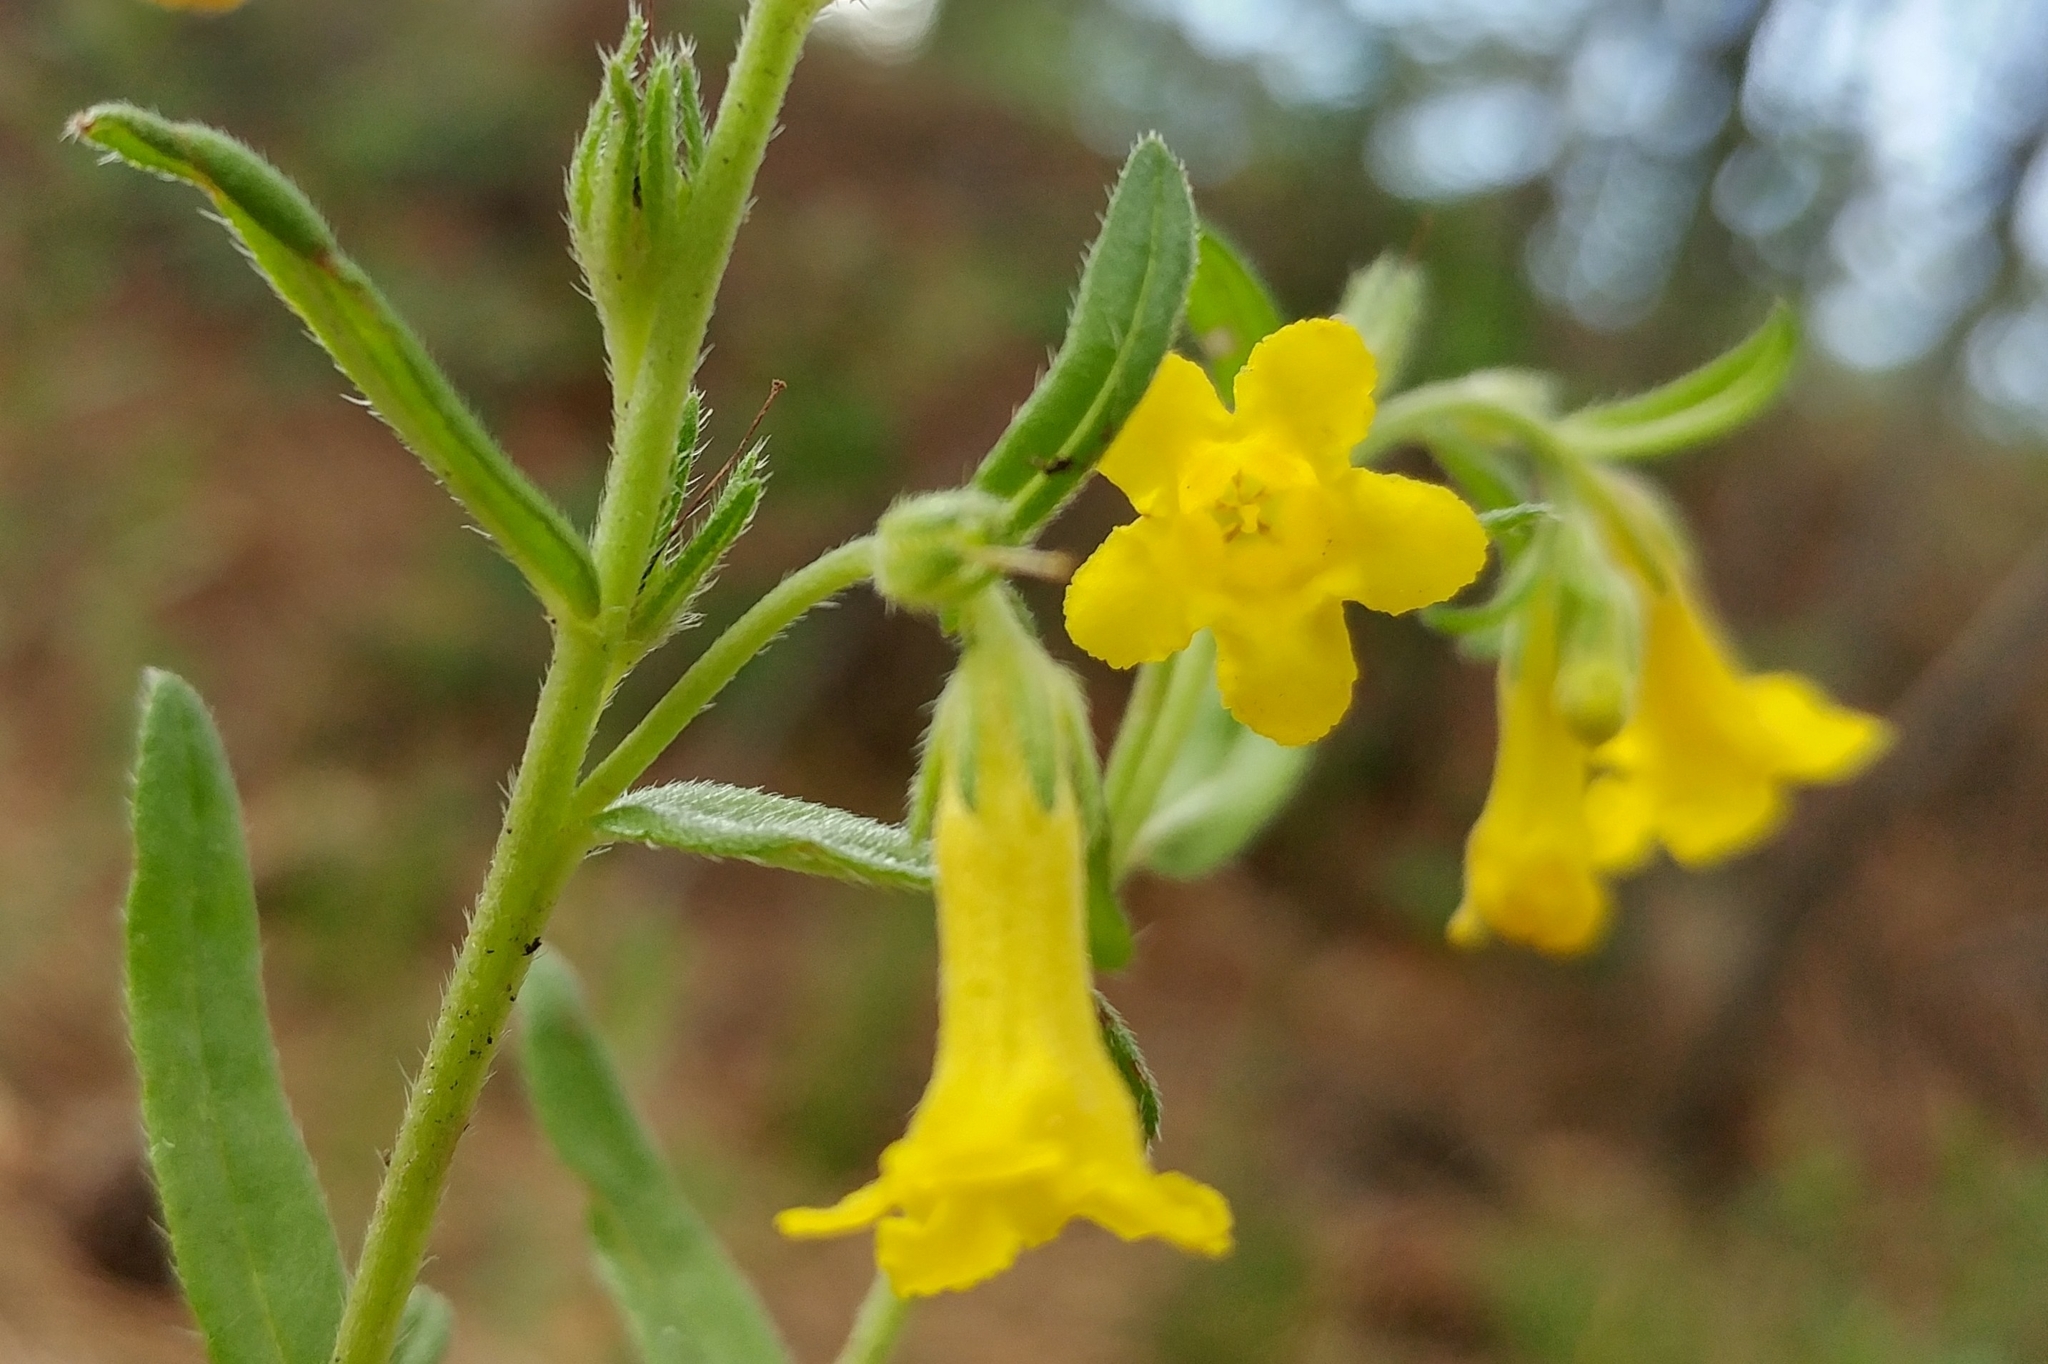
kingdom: Plantae
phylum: Tracheophyta
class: Magnoliopsida
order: Boraginales
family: Boraginaceae
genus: Lithospermum
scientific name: Lithospermum multiflorum
